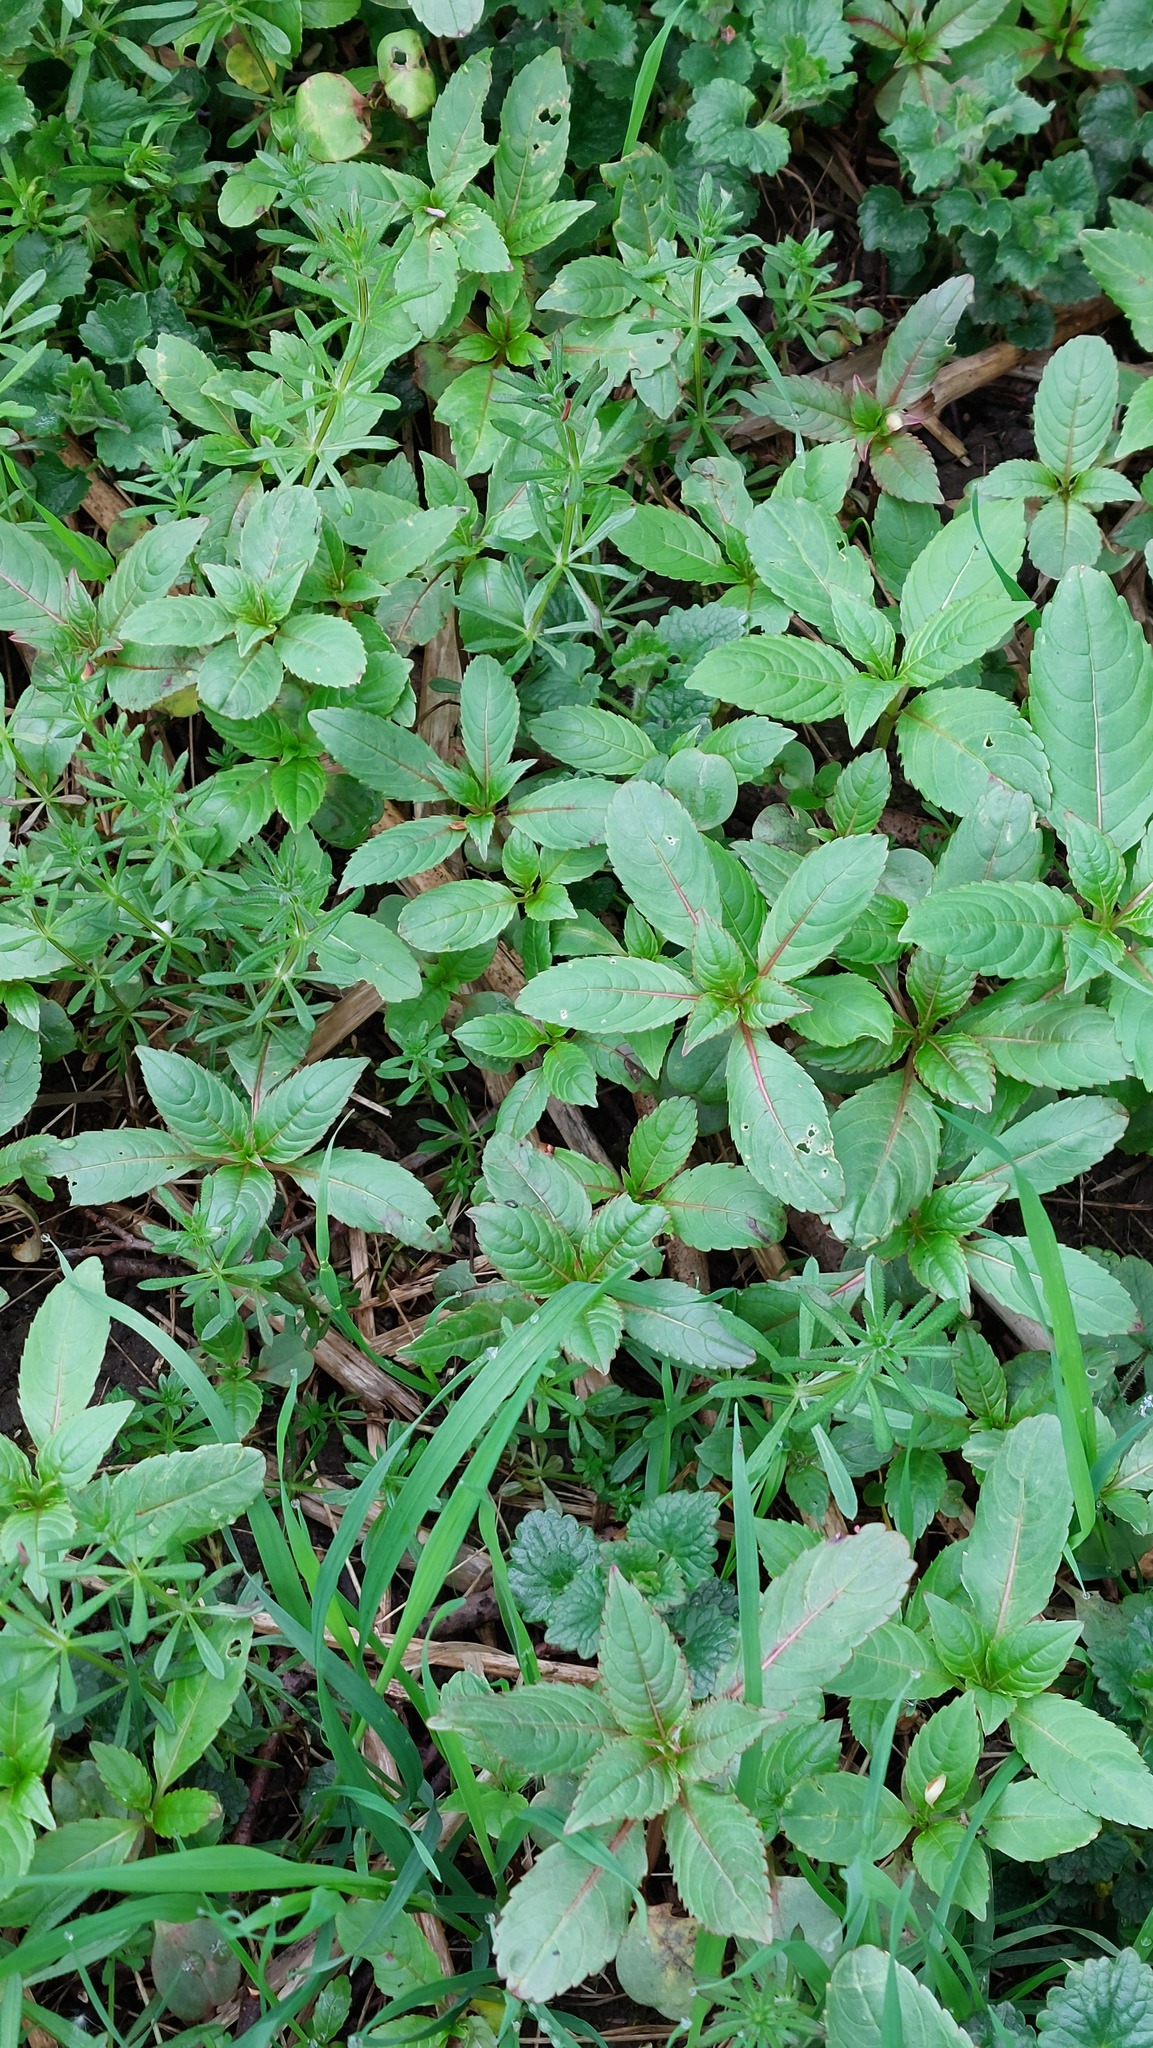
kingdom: Plantae
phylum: Tracheophyta
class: Magnoliopsida
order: Ericales
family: Balsaminaceae
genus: Impatiens
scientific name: Impatiens glandulifera
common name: Himalayan balsam
